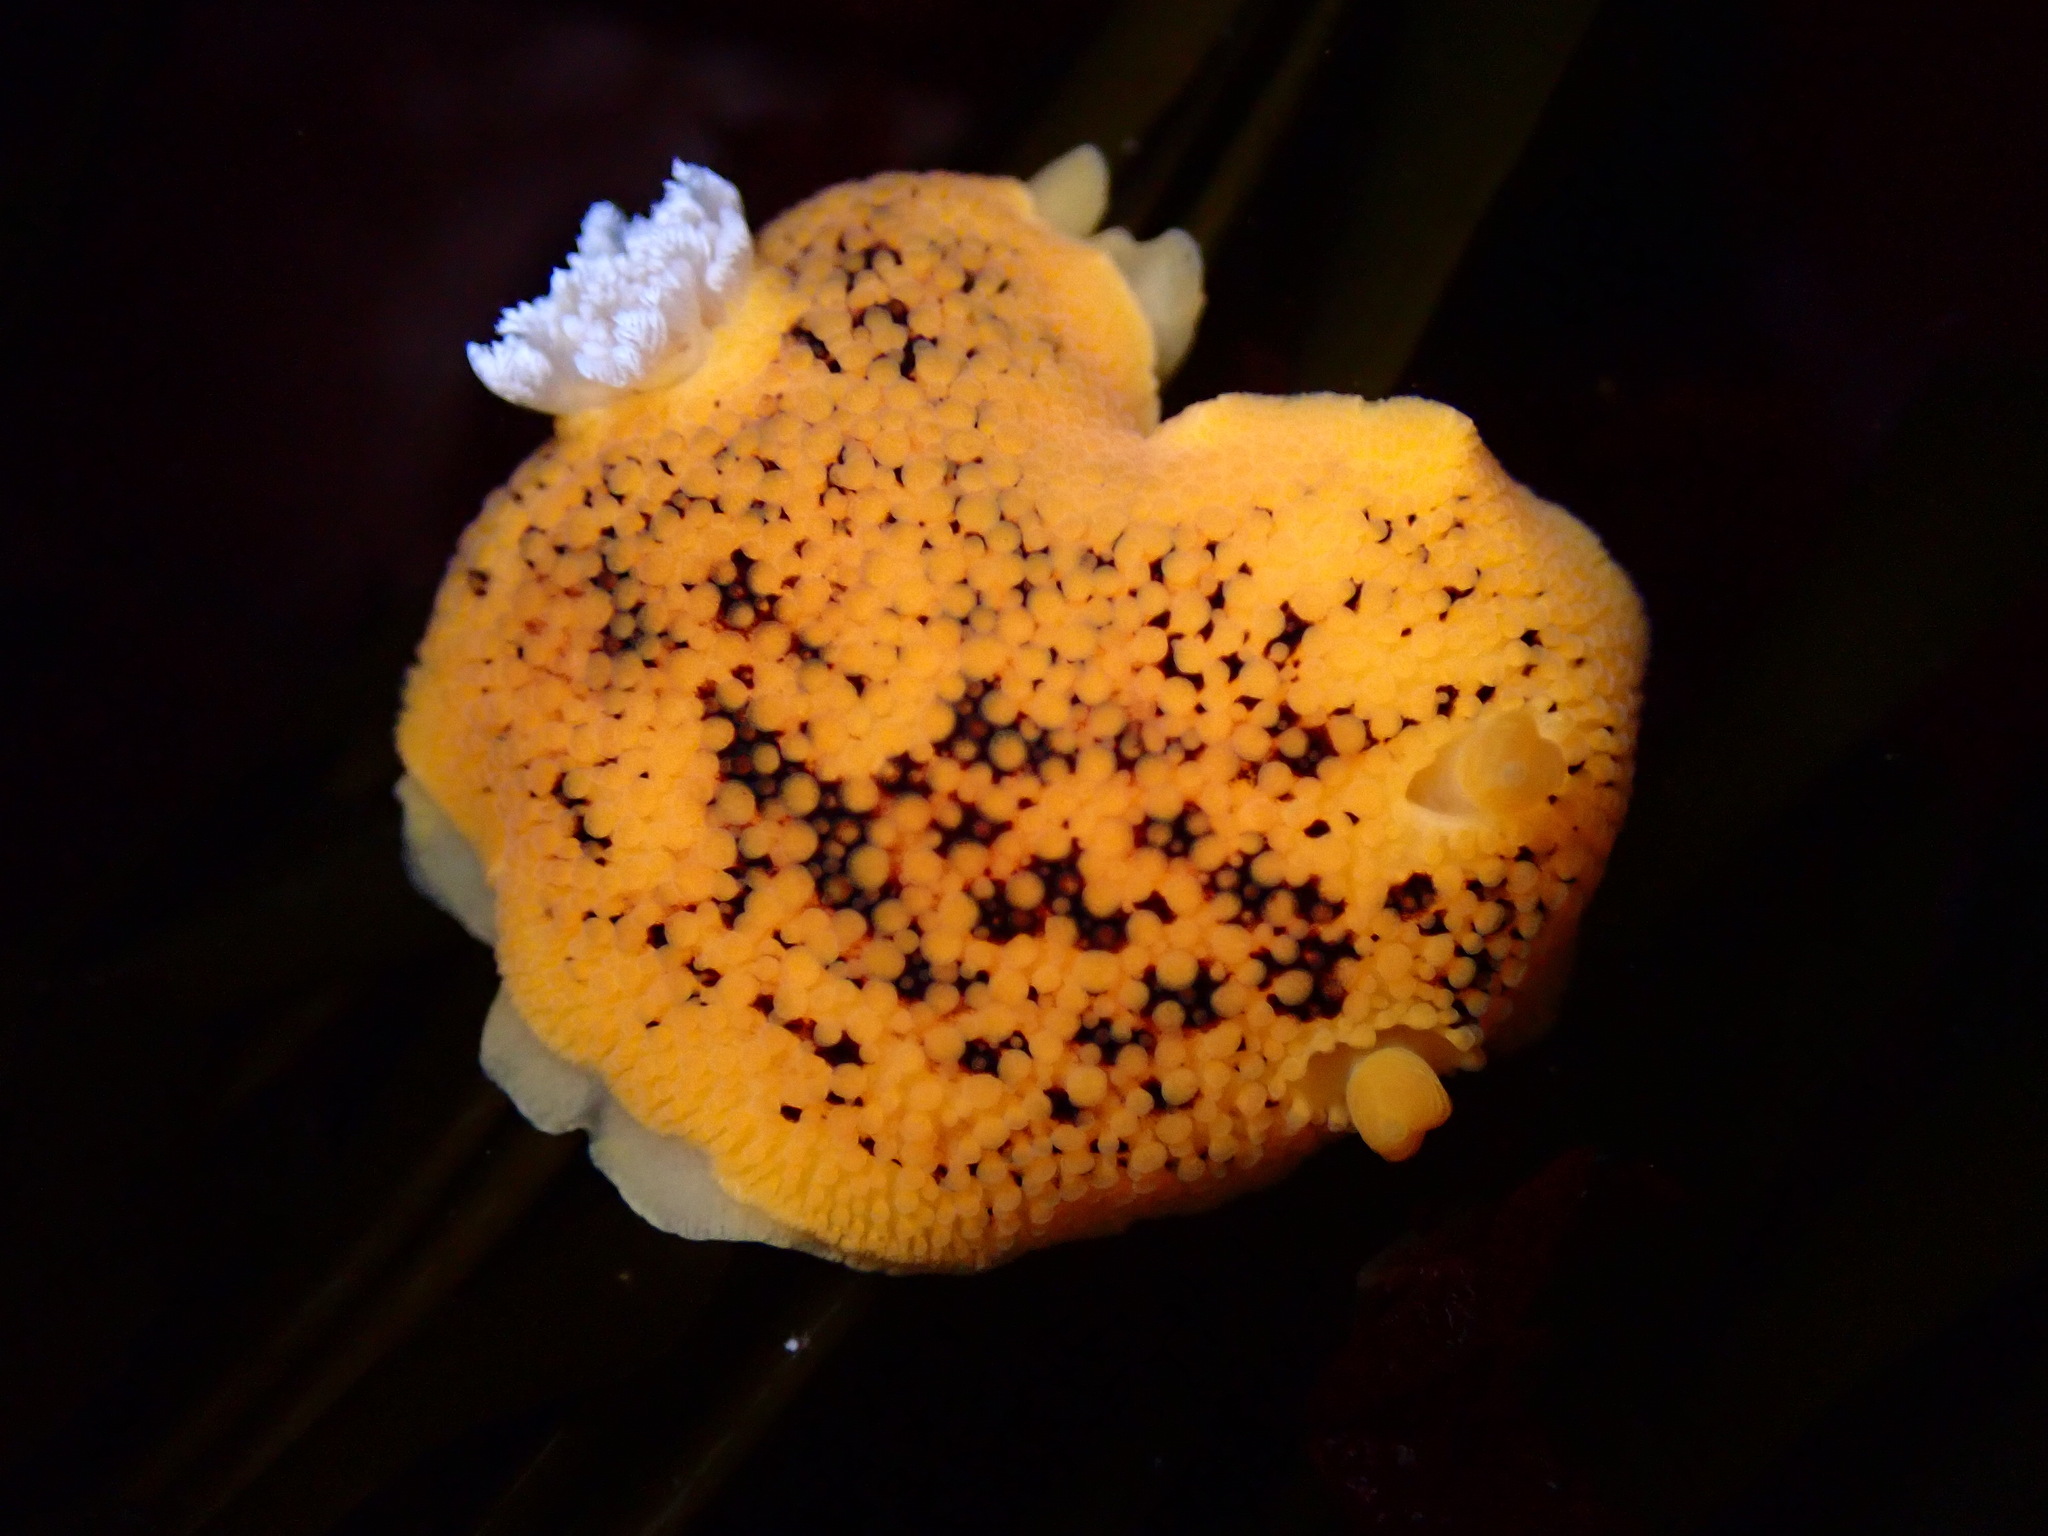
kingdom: Animalia
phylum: Mollusca
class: Gastropoda
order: Nudibranchia
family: Discodorididae
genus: Peltodoris
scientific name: Peltodoris nobilis
